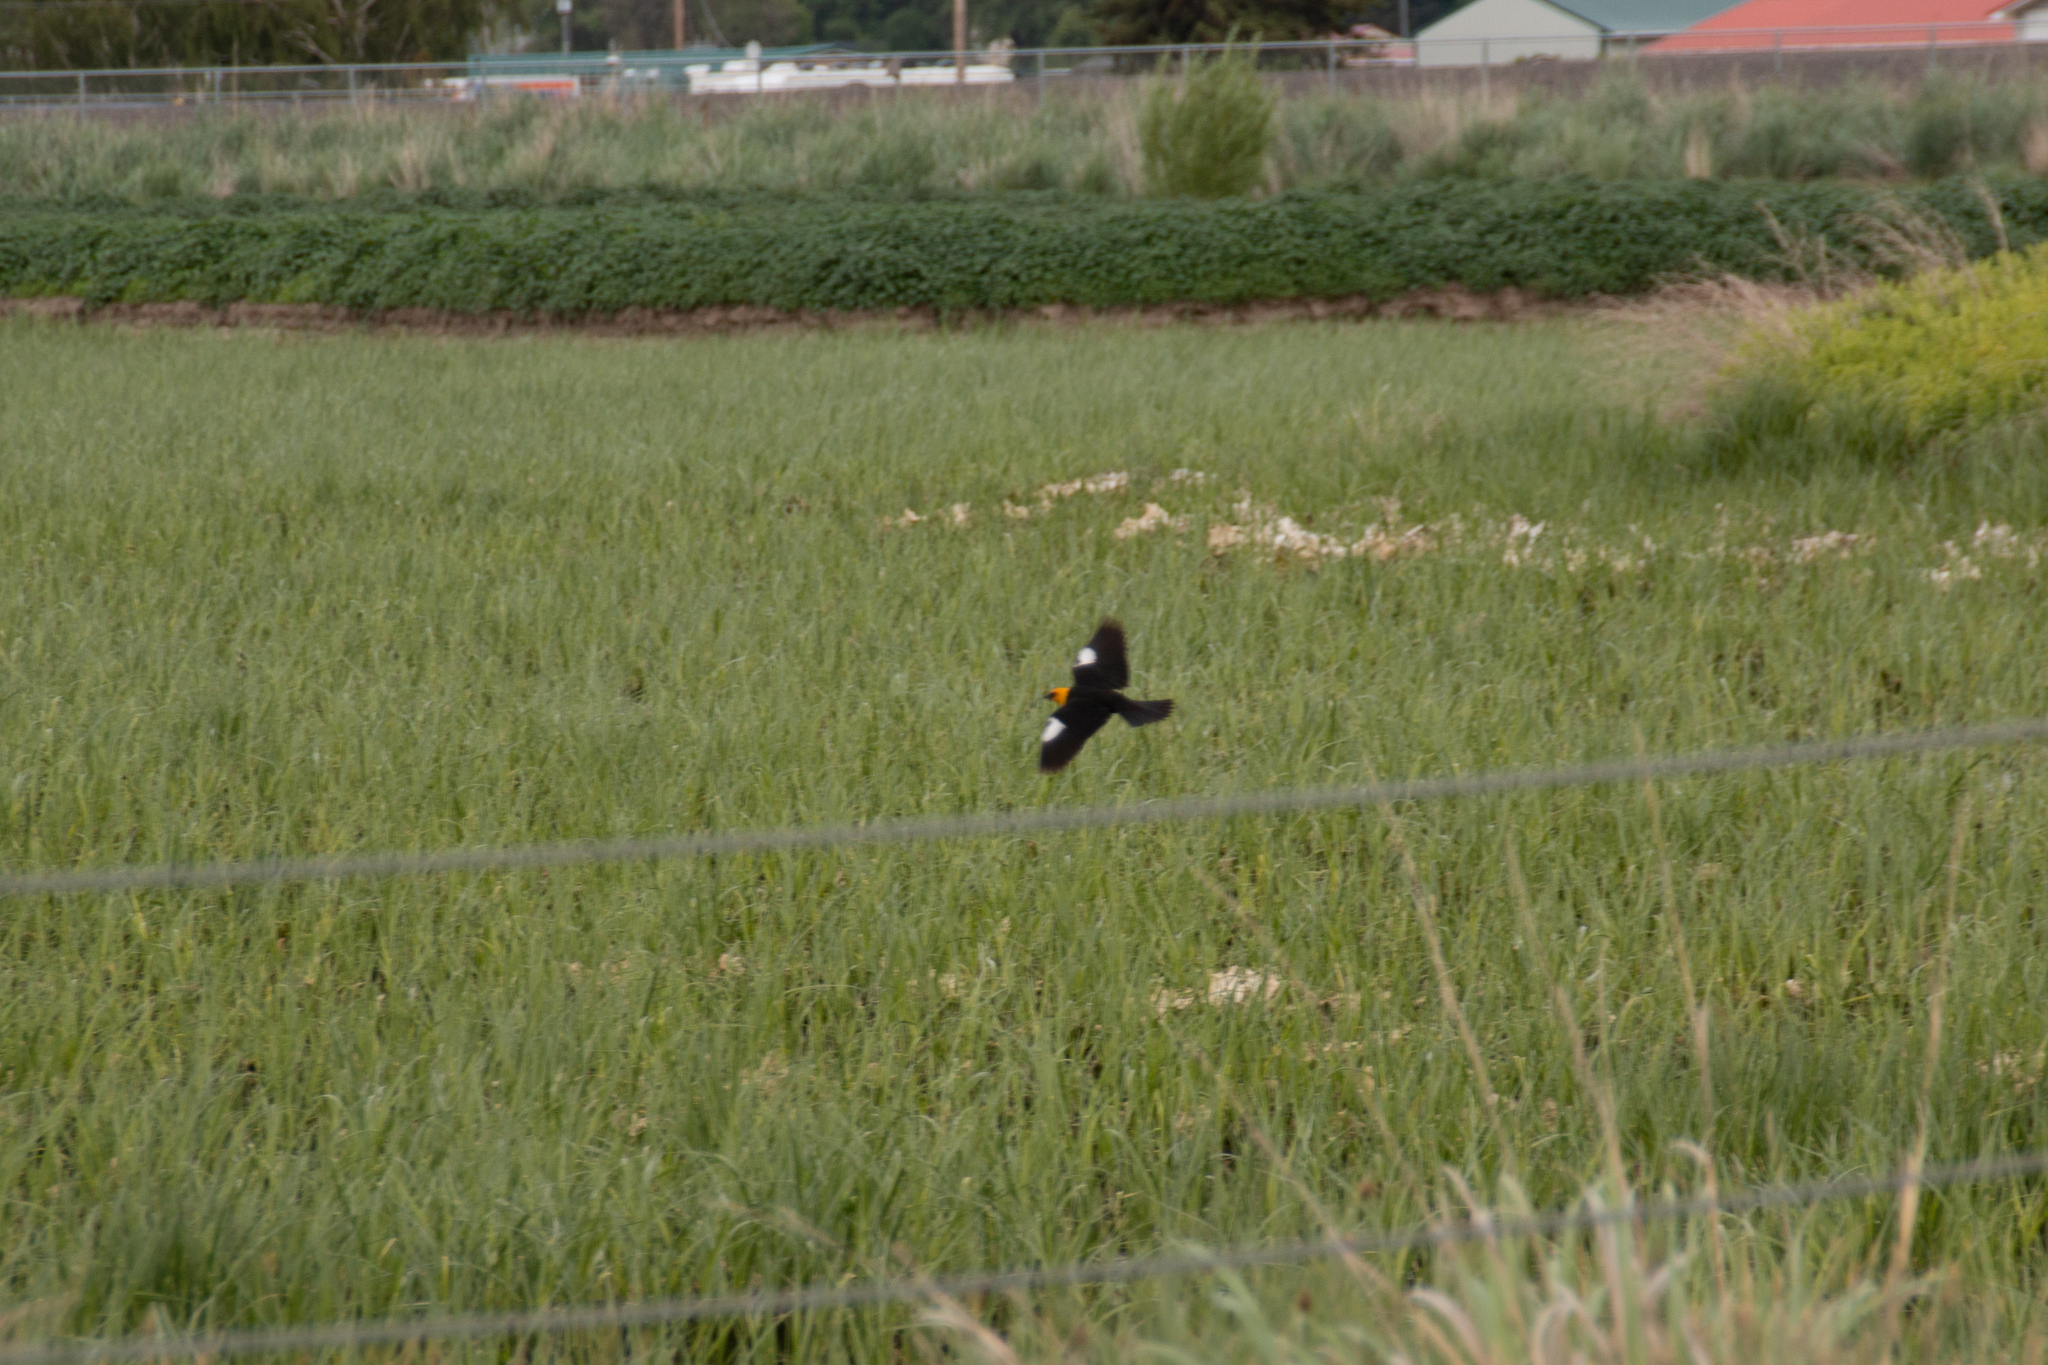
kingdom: Animalia
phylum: Chordata
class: Aves
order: Passeriformes
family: Icteridae
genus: Xanthocephalus
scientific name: Xanthocephalus xanthocephalus
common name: Yellow-headed blackbird
